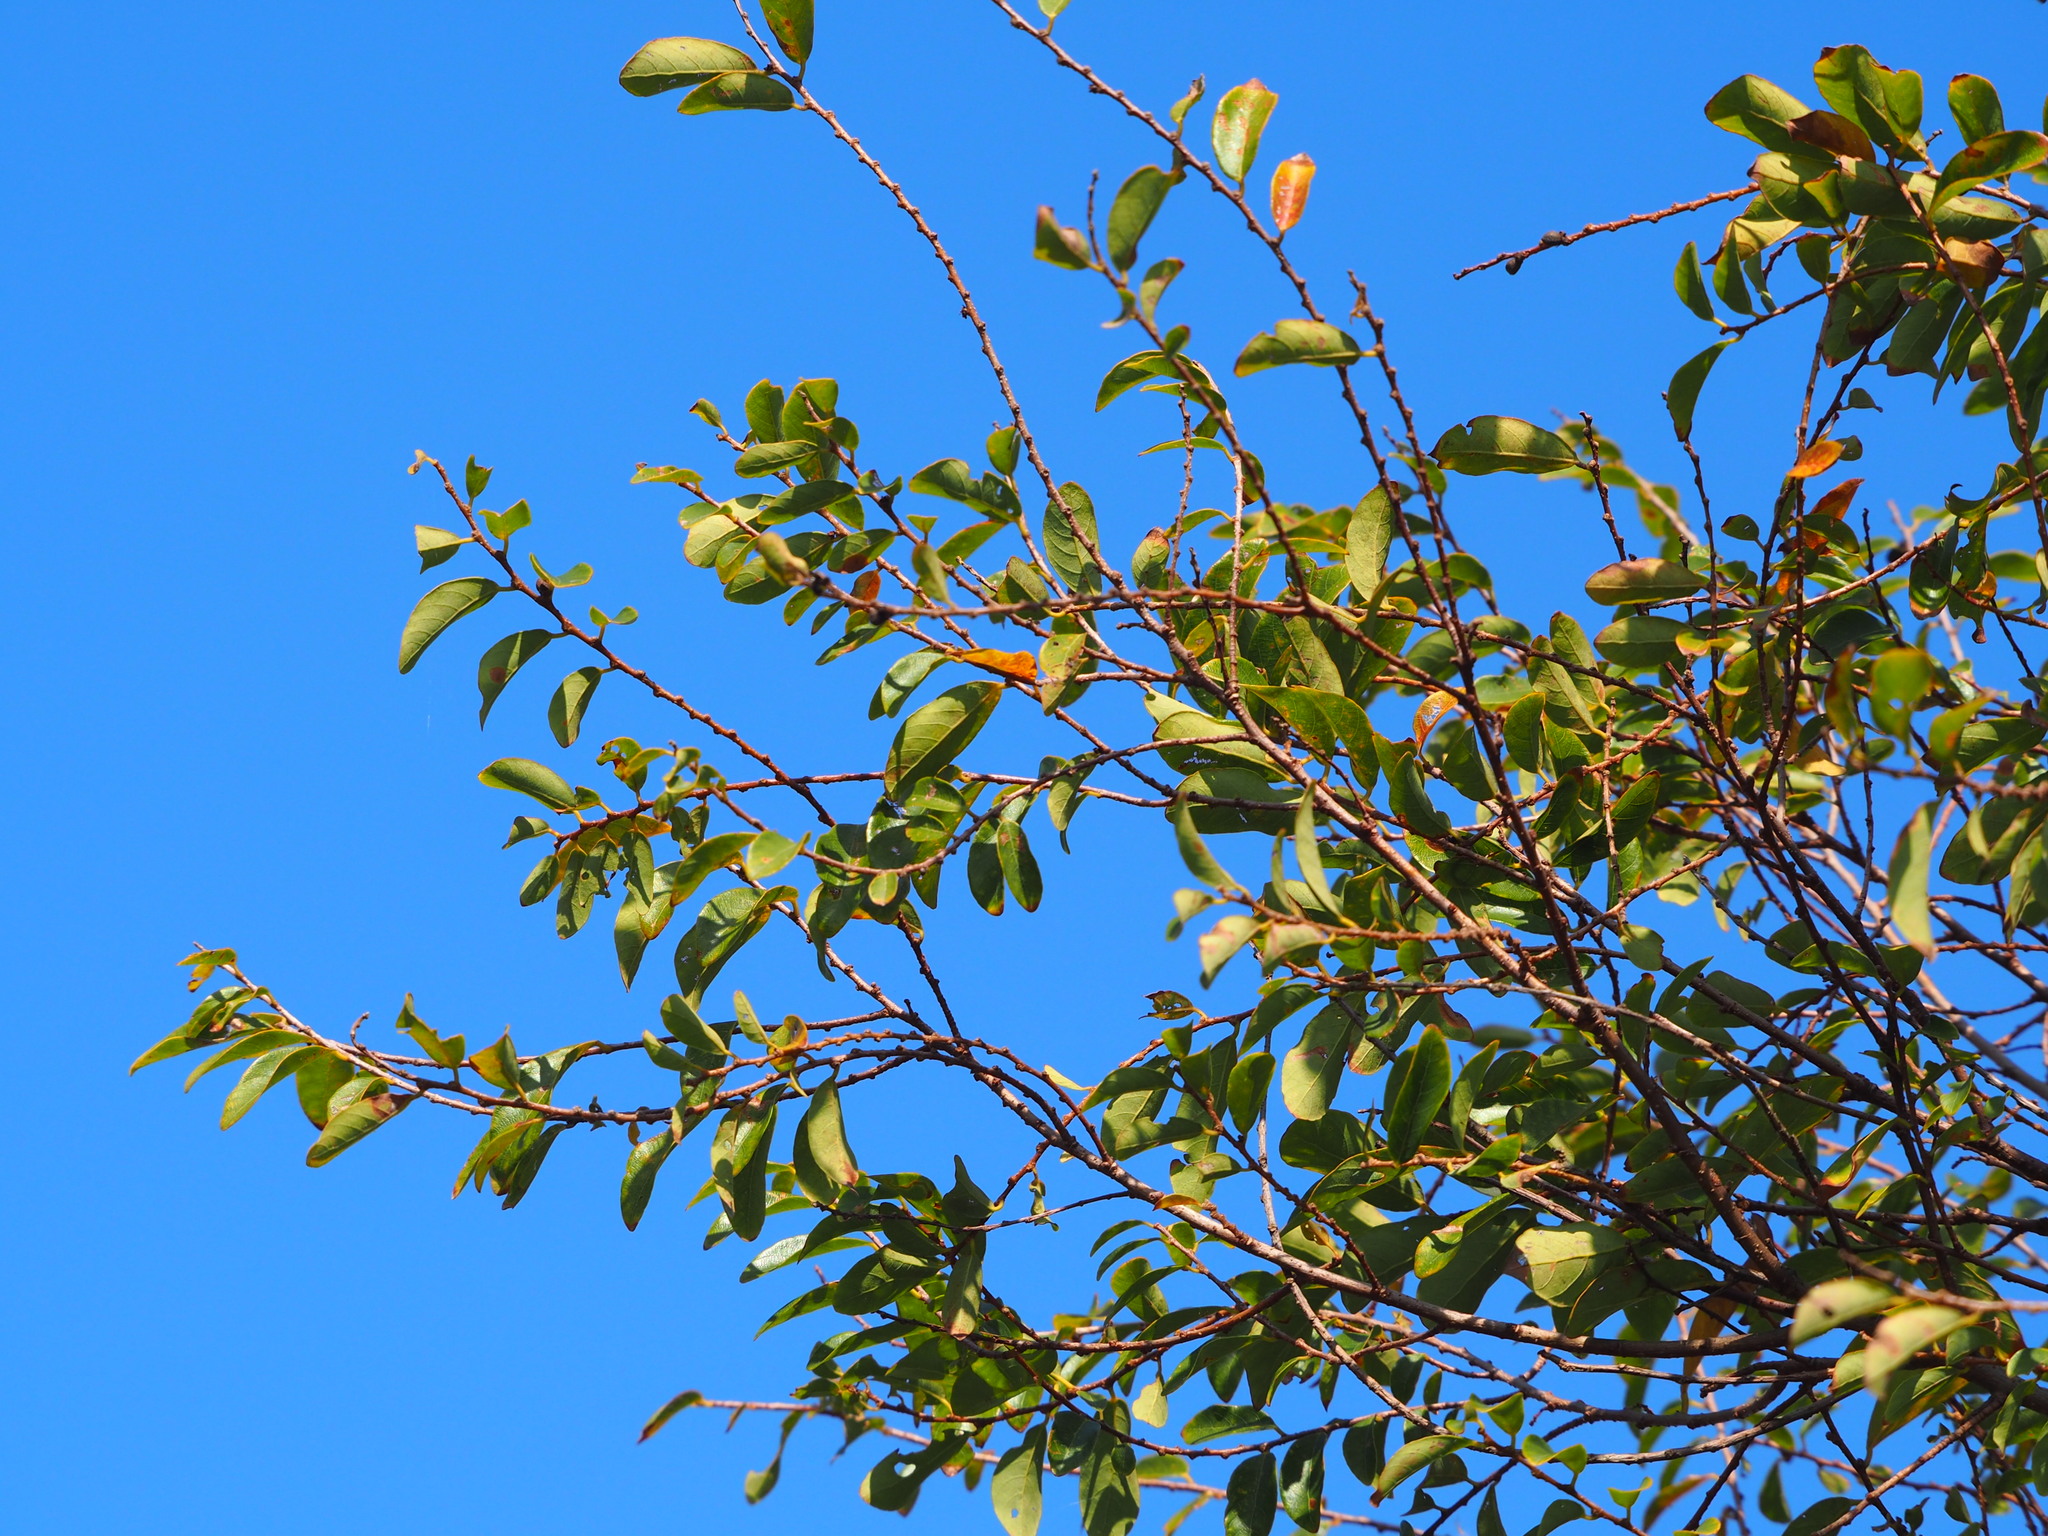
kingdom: Plantae
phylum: Tracheophyta
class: Magnoliopsida
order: Malpighiales
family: Phyllanthaceae
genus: Bridelia
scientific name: Bridelia tomentosa
